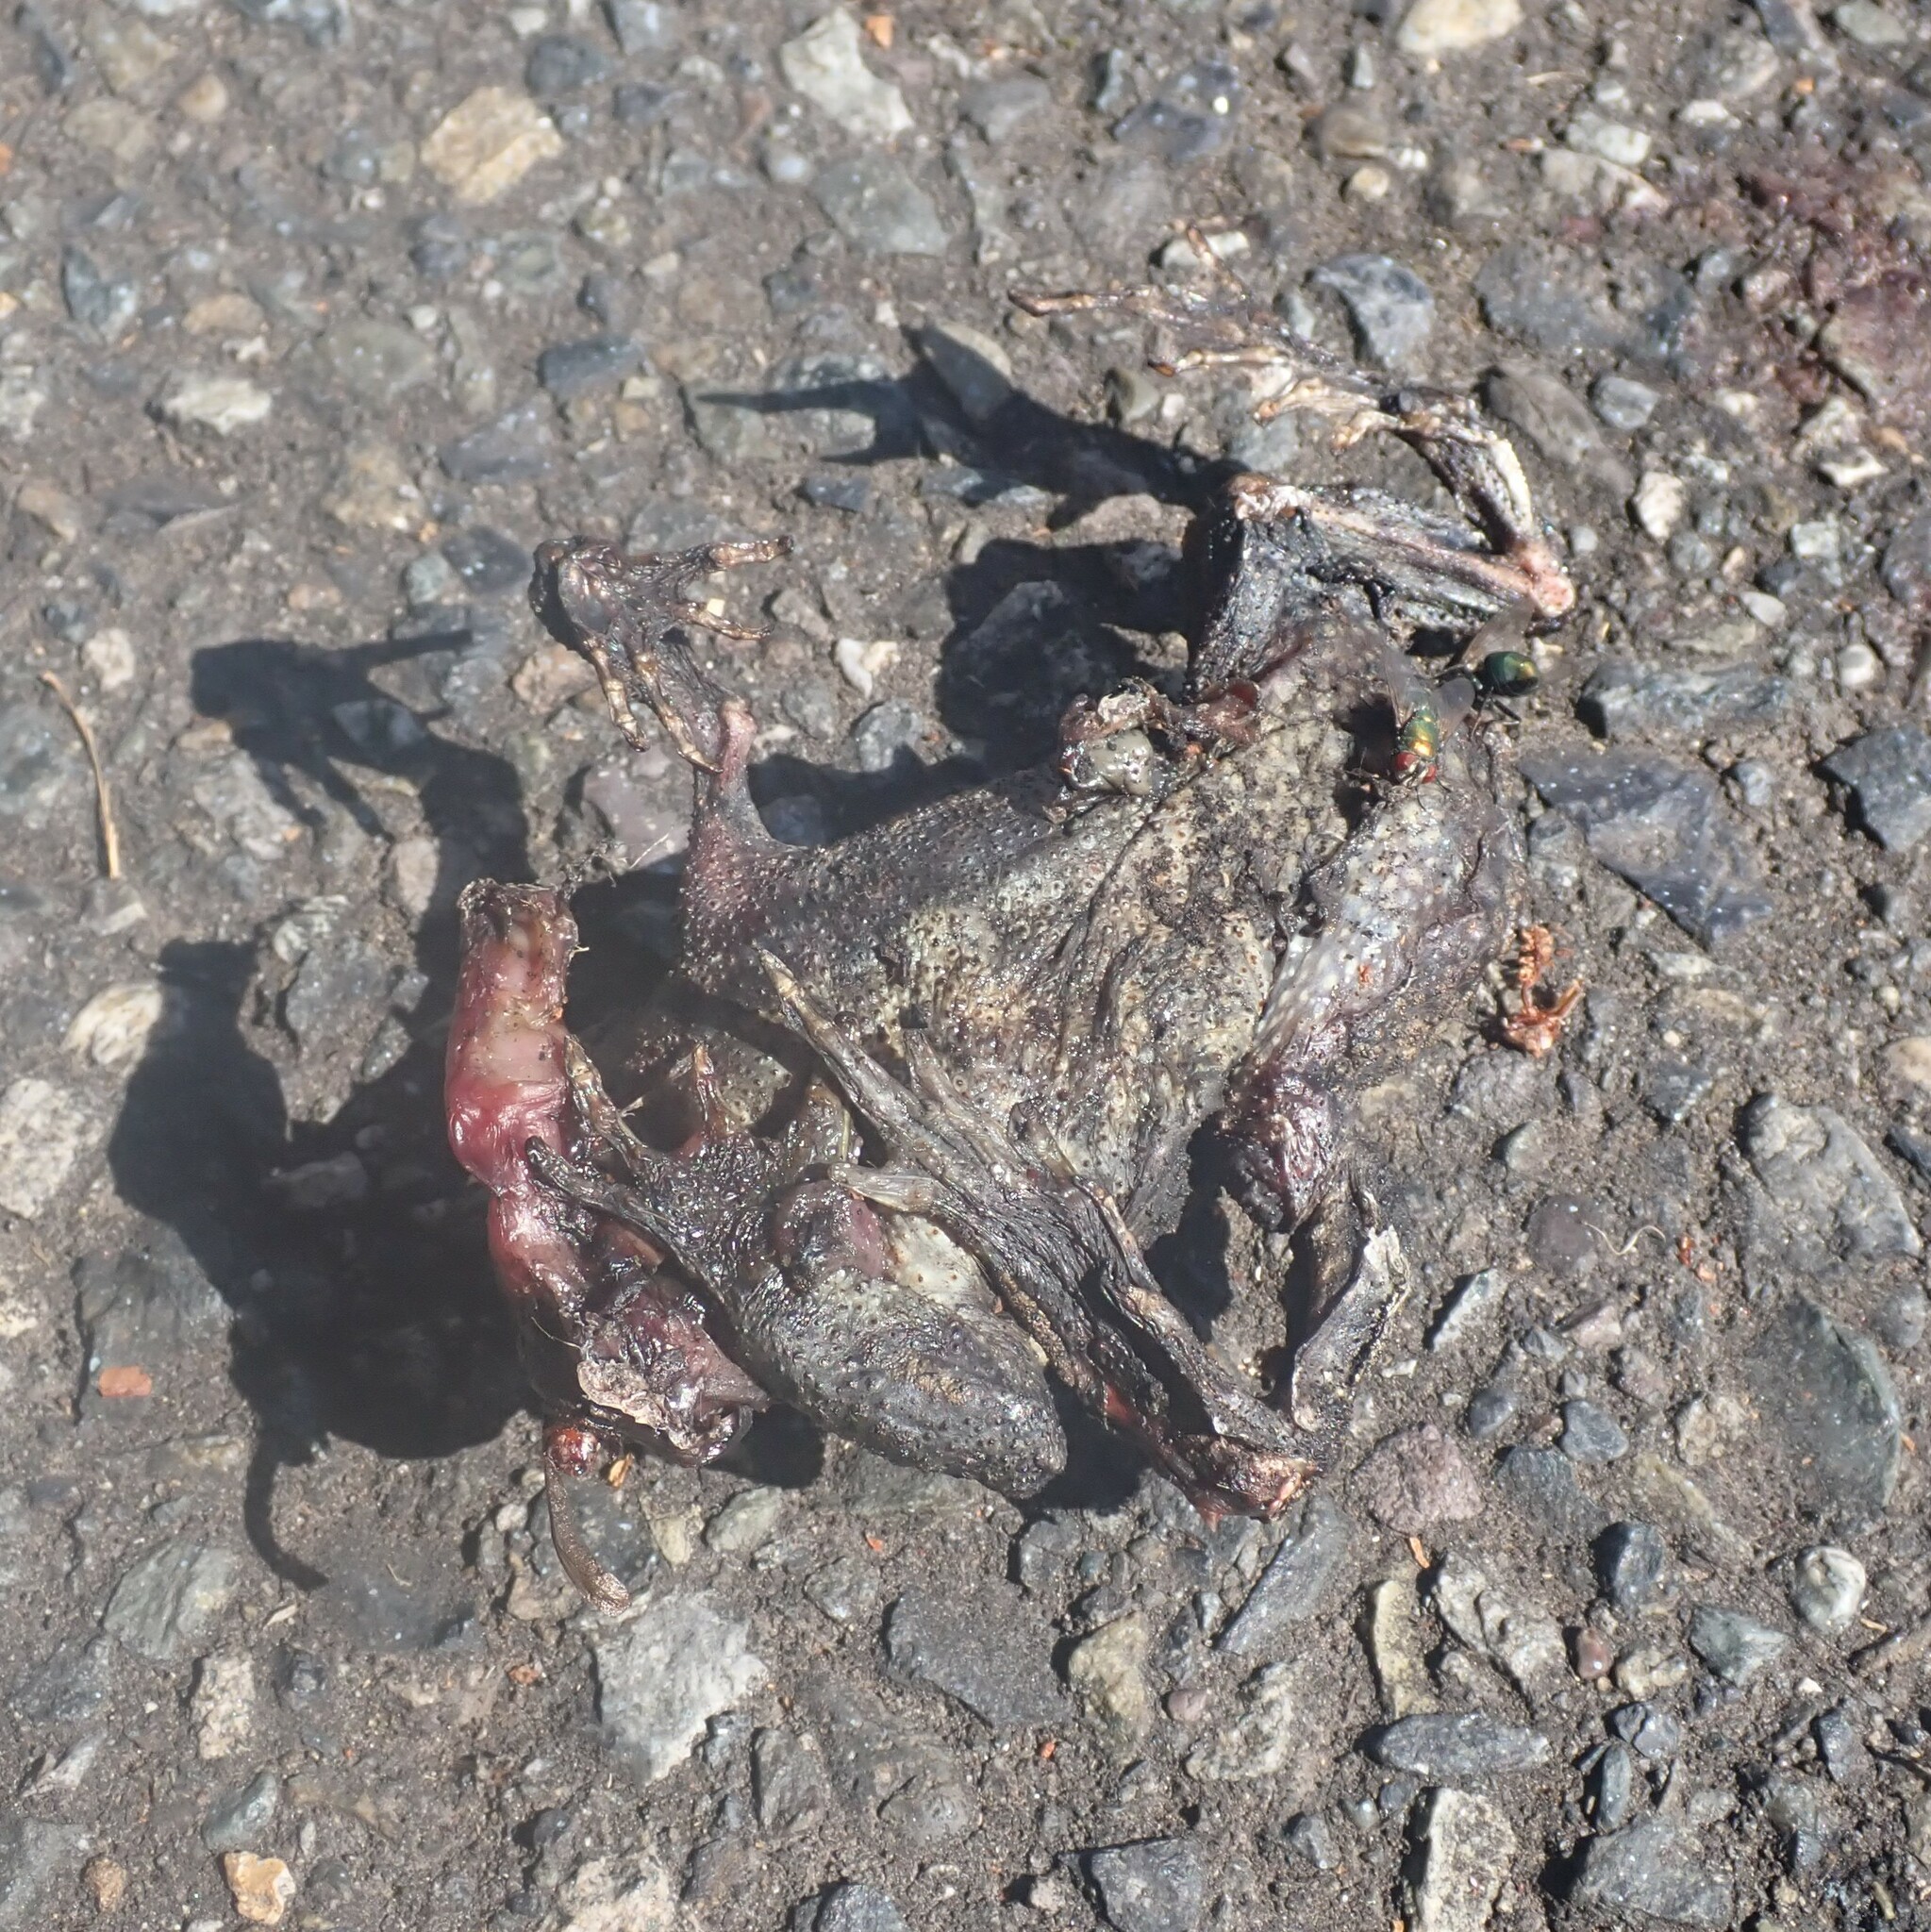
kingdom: Animalia
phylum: Chordata
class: Amphibia
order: Anura
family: Bufonidae
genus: Anaxyrus
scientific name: Anaxyrus boreas
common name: Western toad
